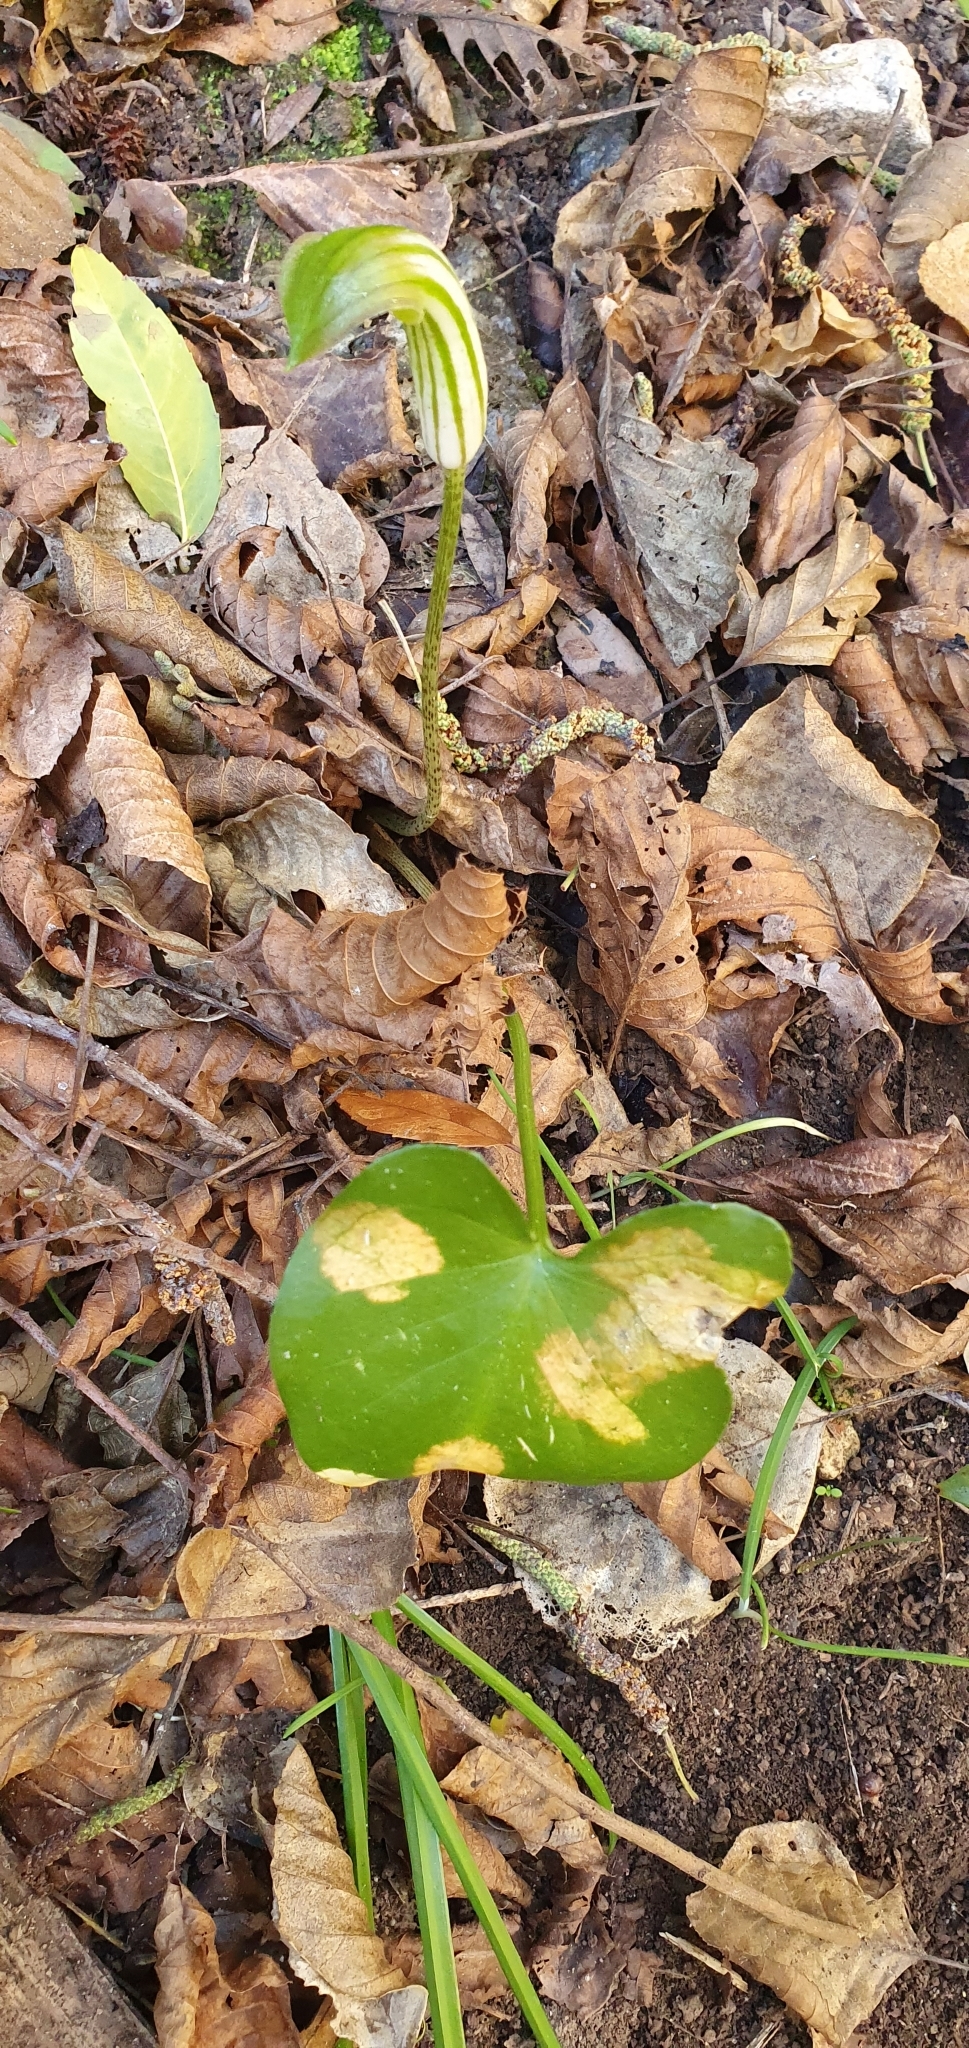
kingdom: Plantae
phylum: Tracheophyta
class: Liliopsida
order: Alismatales
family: Araceae
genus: Arisarum
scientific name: Arisarum vulgare
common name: Common arisarum
